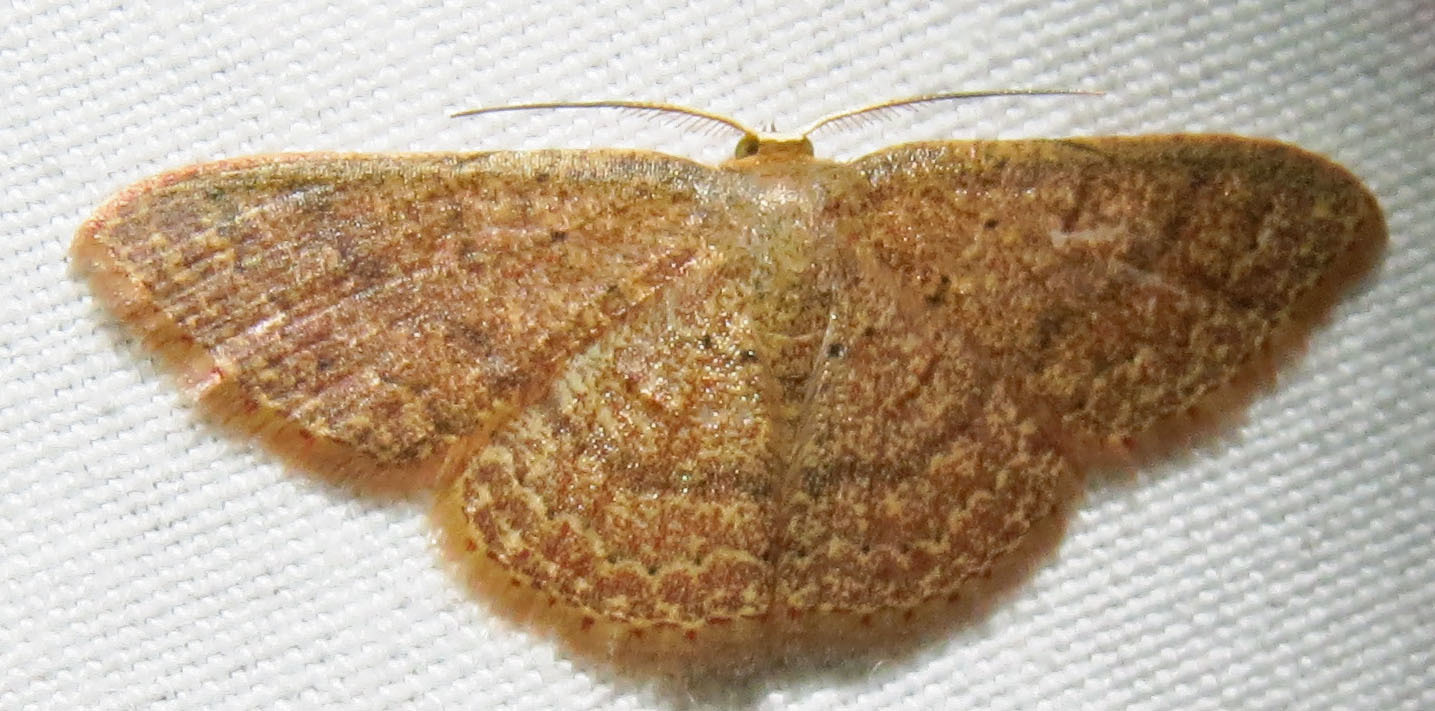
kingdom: Animalia
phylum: Arthropoda
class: Insecta
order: Lepidoptera
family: Geometridae
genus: Pleuroprucha
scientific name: Pleuroprucha insulsaria
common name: Common tan wave
